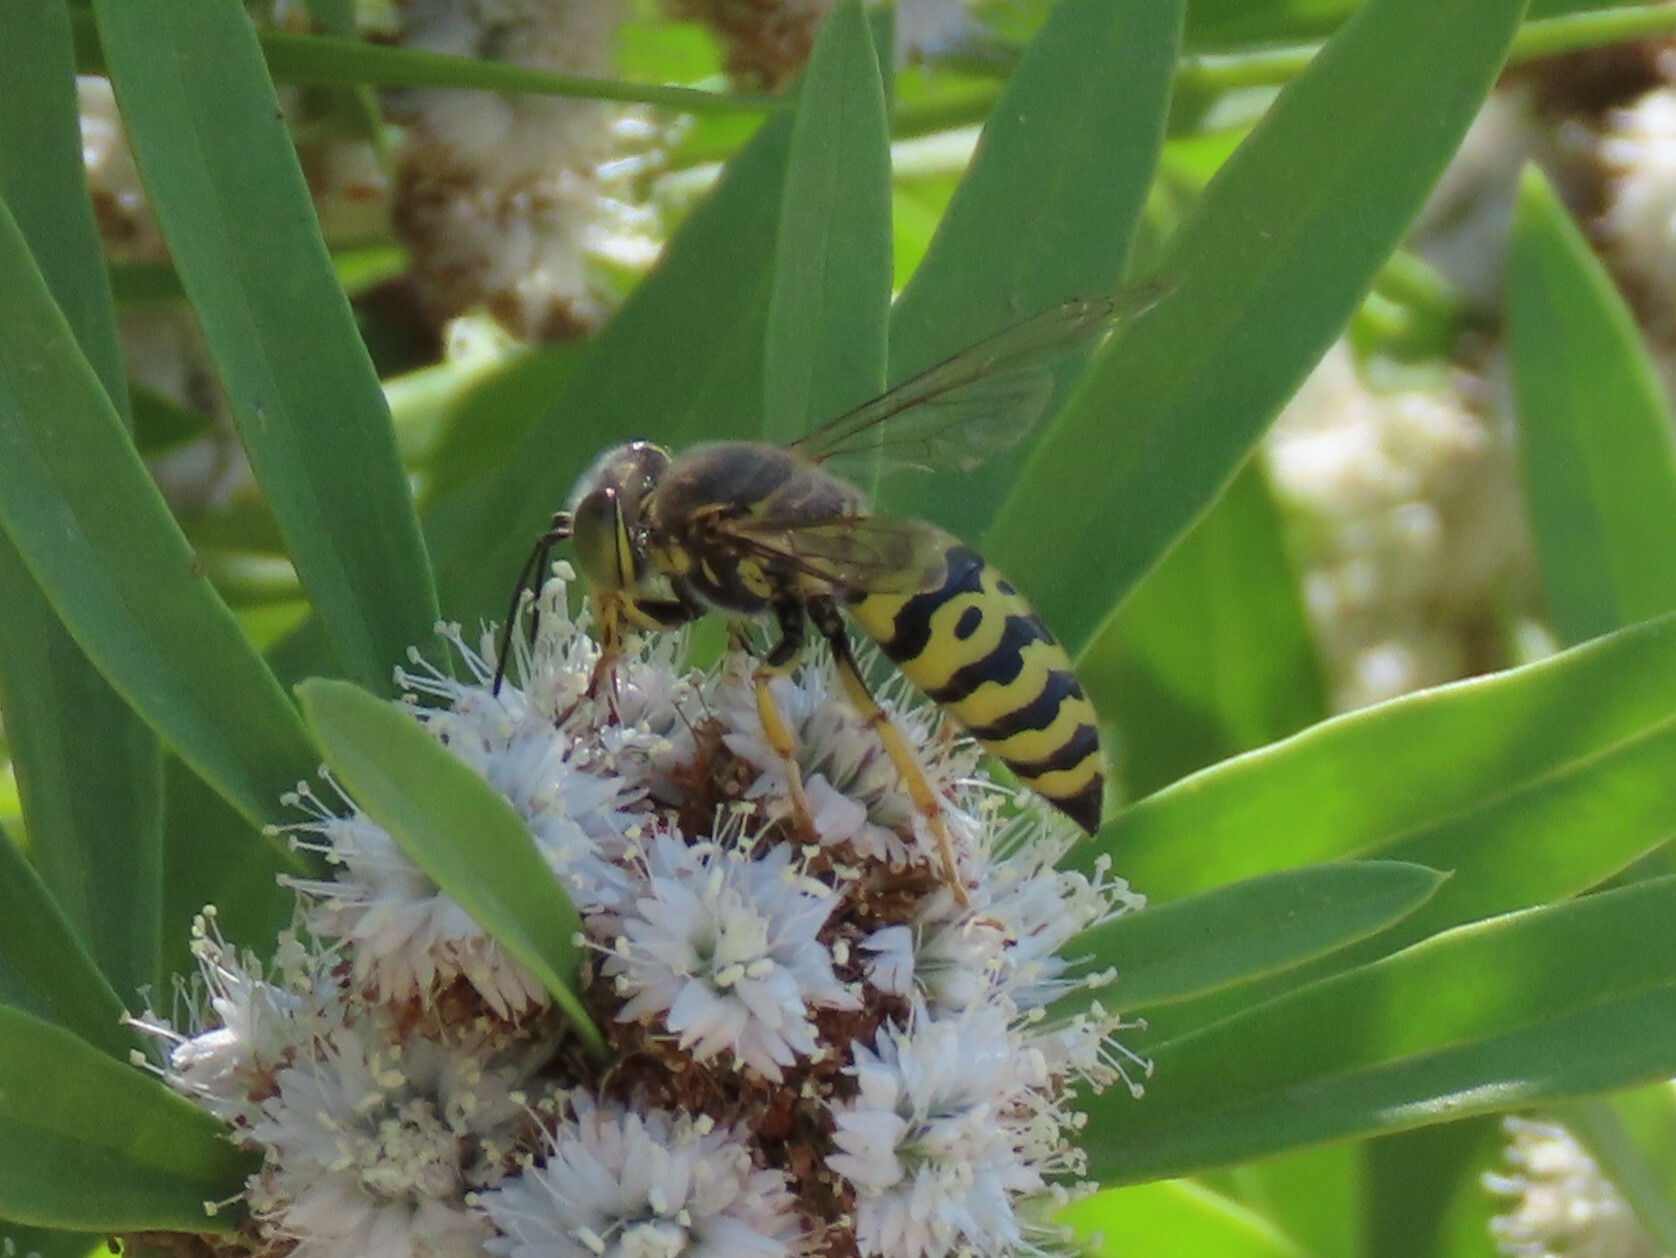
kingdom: Animalia
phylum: Arthropoda
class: Insecta
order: Hymenoptera
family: Crabronidae
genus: Bembix
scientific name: Bembix oculata
